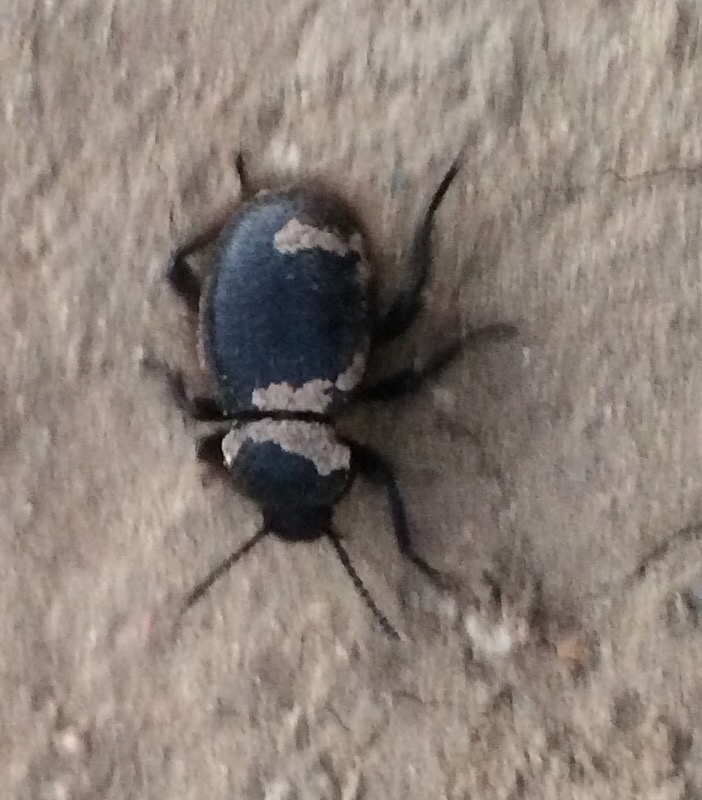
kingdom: Animalia
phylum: Arthropoda
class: Insecta
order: Coleoptera
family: Tenebrionidae
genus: Eleodes
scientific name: Eleodes osculans
